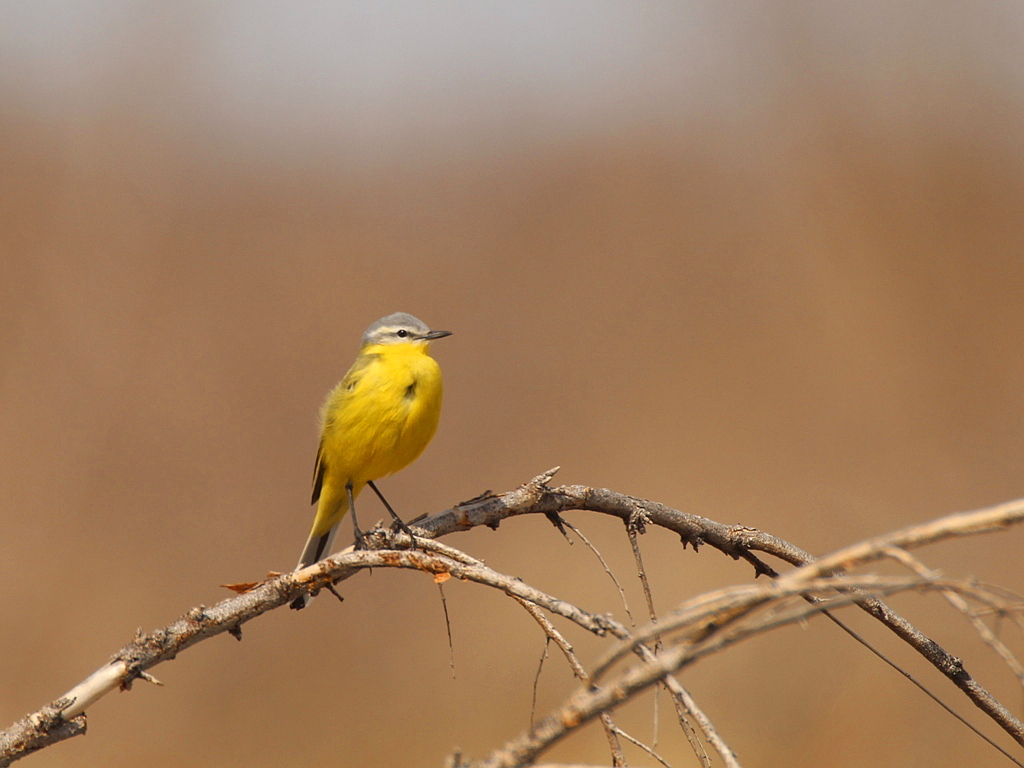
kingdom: Animalia
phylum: Chordata
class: Aves
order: Passeriformes
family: Motacillidae
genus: Motacilla
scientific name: Motacilla flava
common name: Western yellow wagtail
